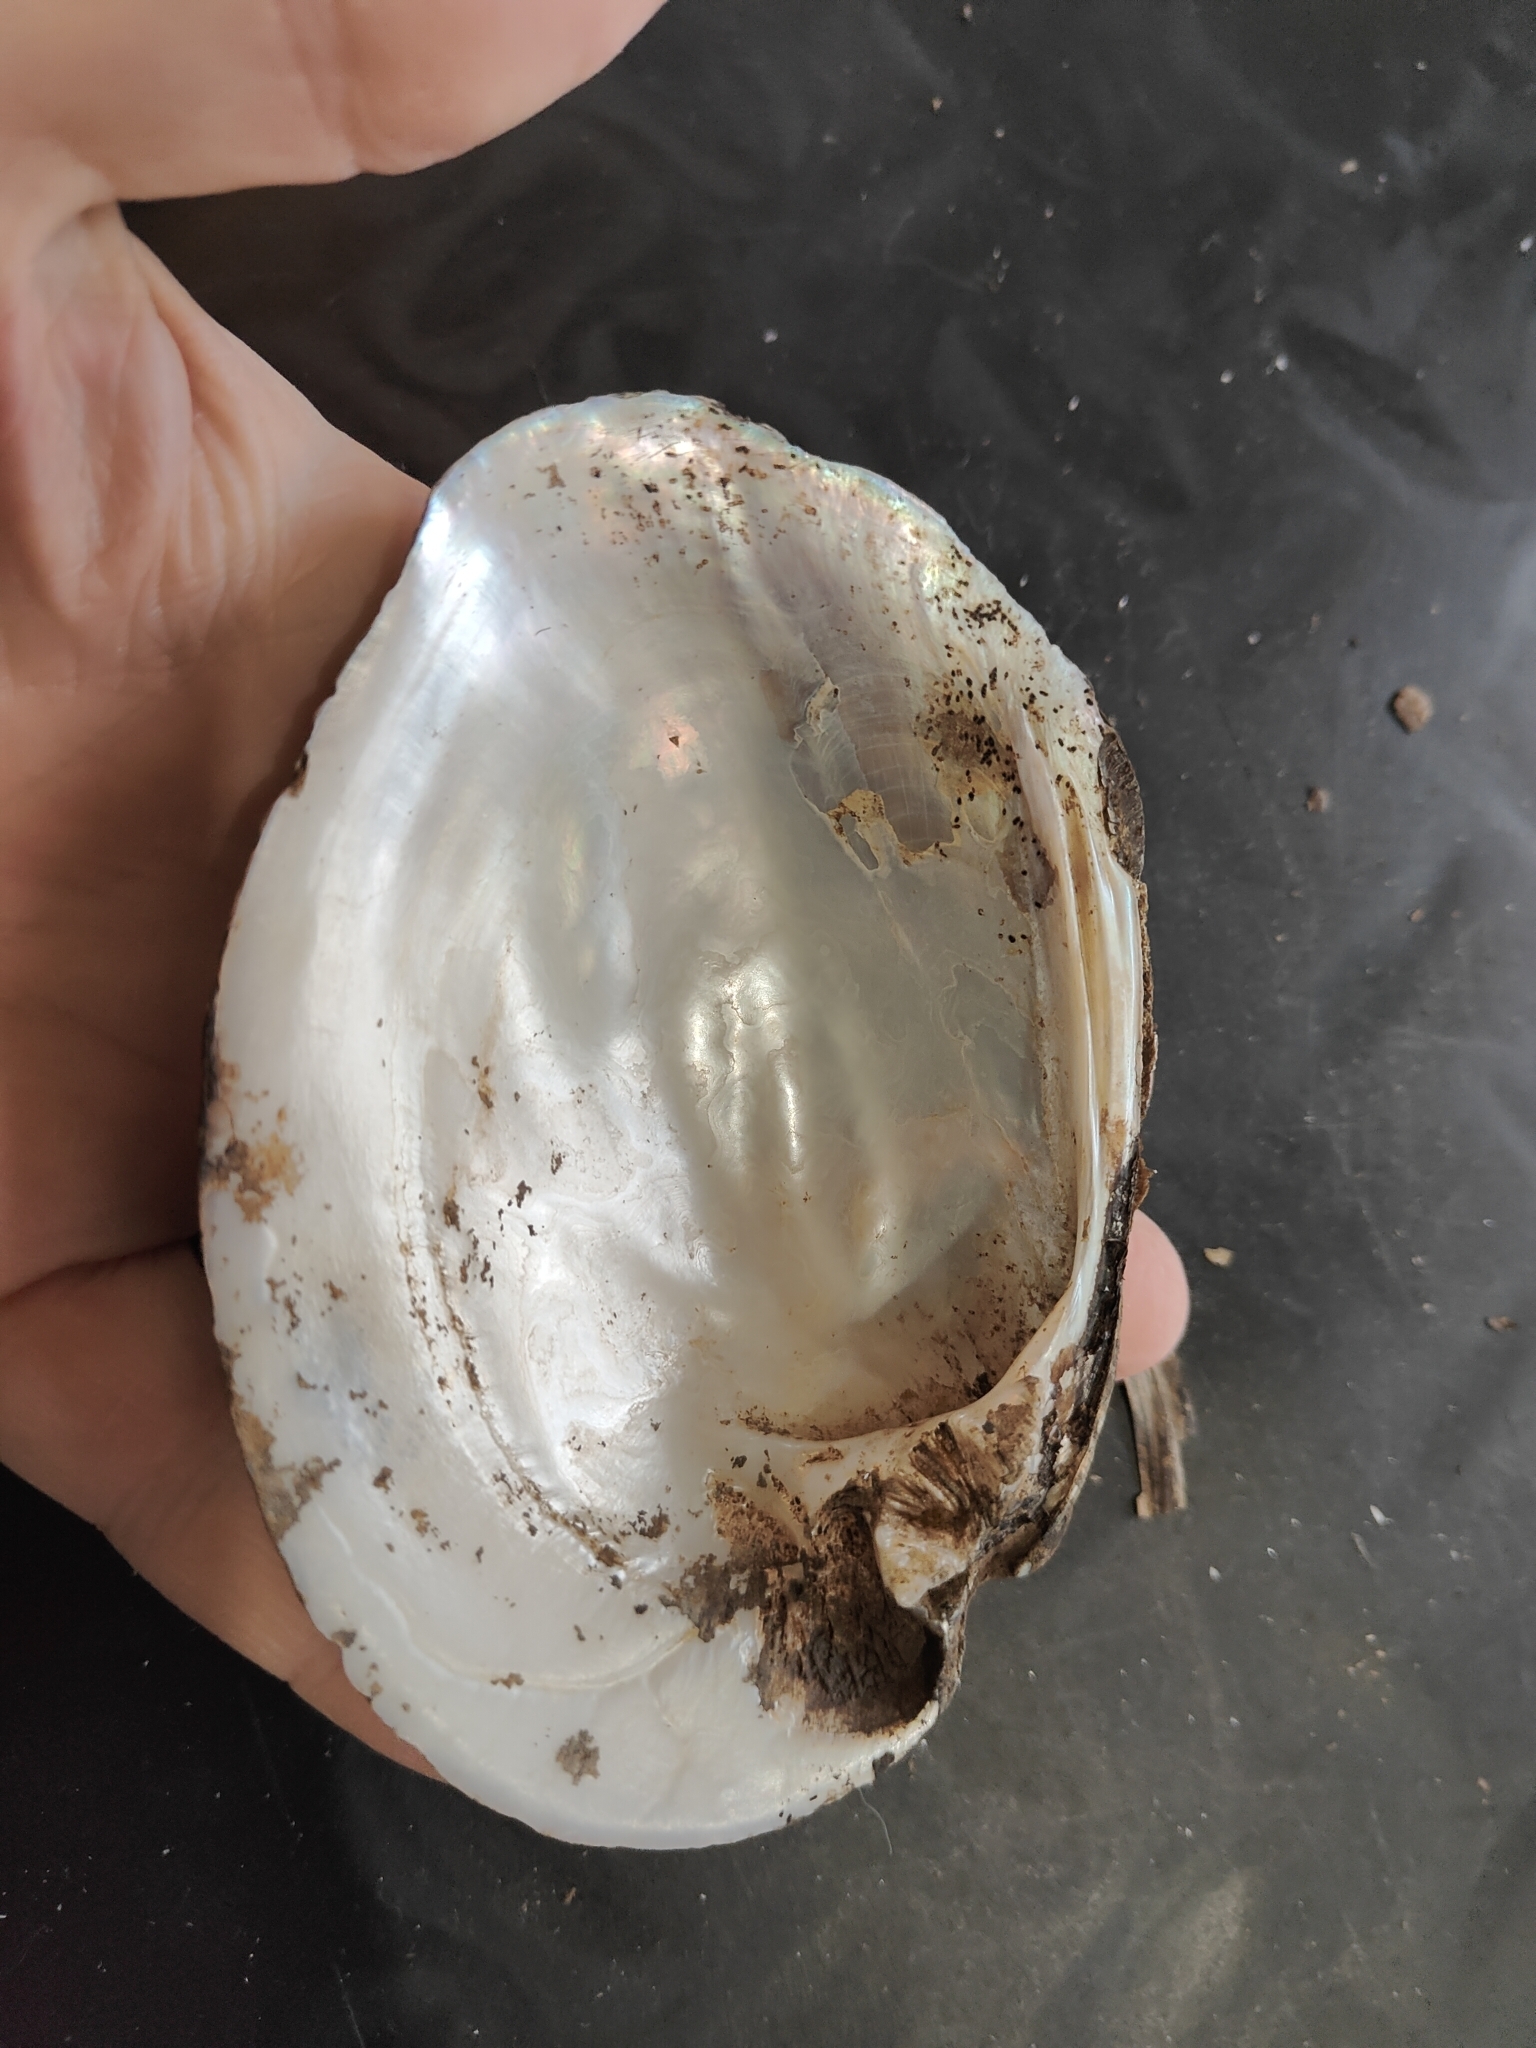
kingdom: Animalia
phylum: Mollusca
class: Bivalvia
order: Unionida
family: Unionidae
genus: Amblema
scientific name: Amblema plicata
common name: Threeridge
